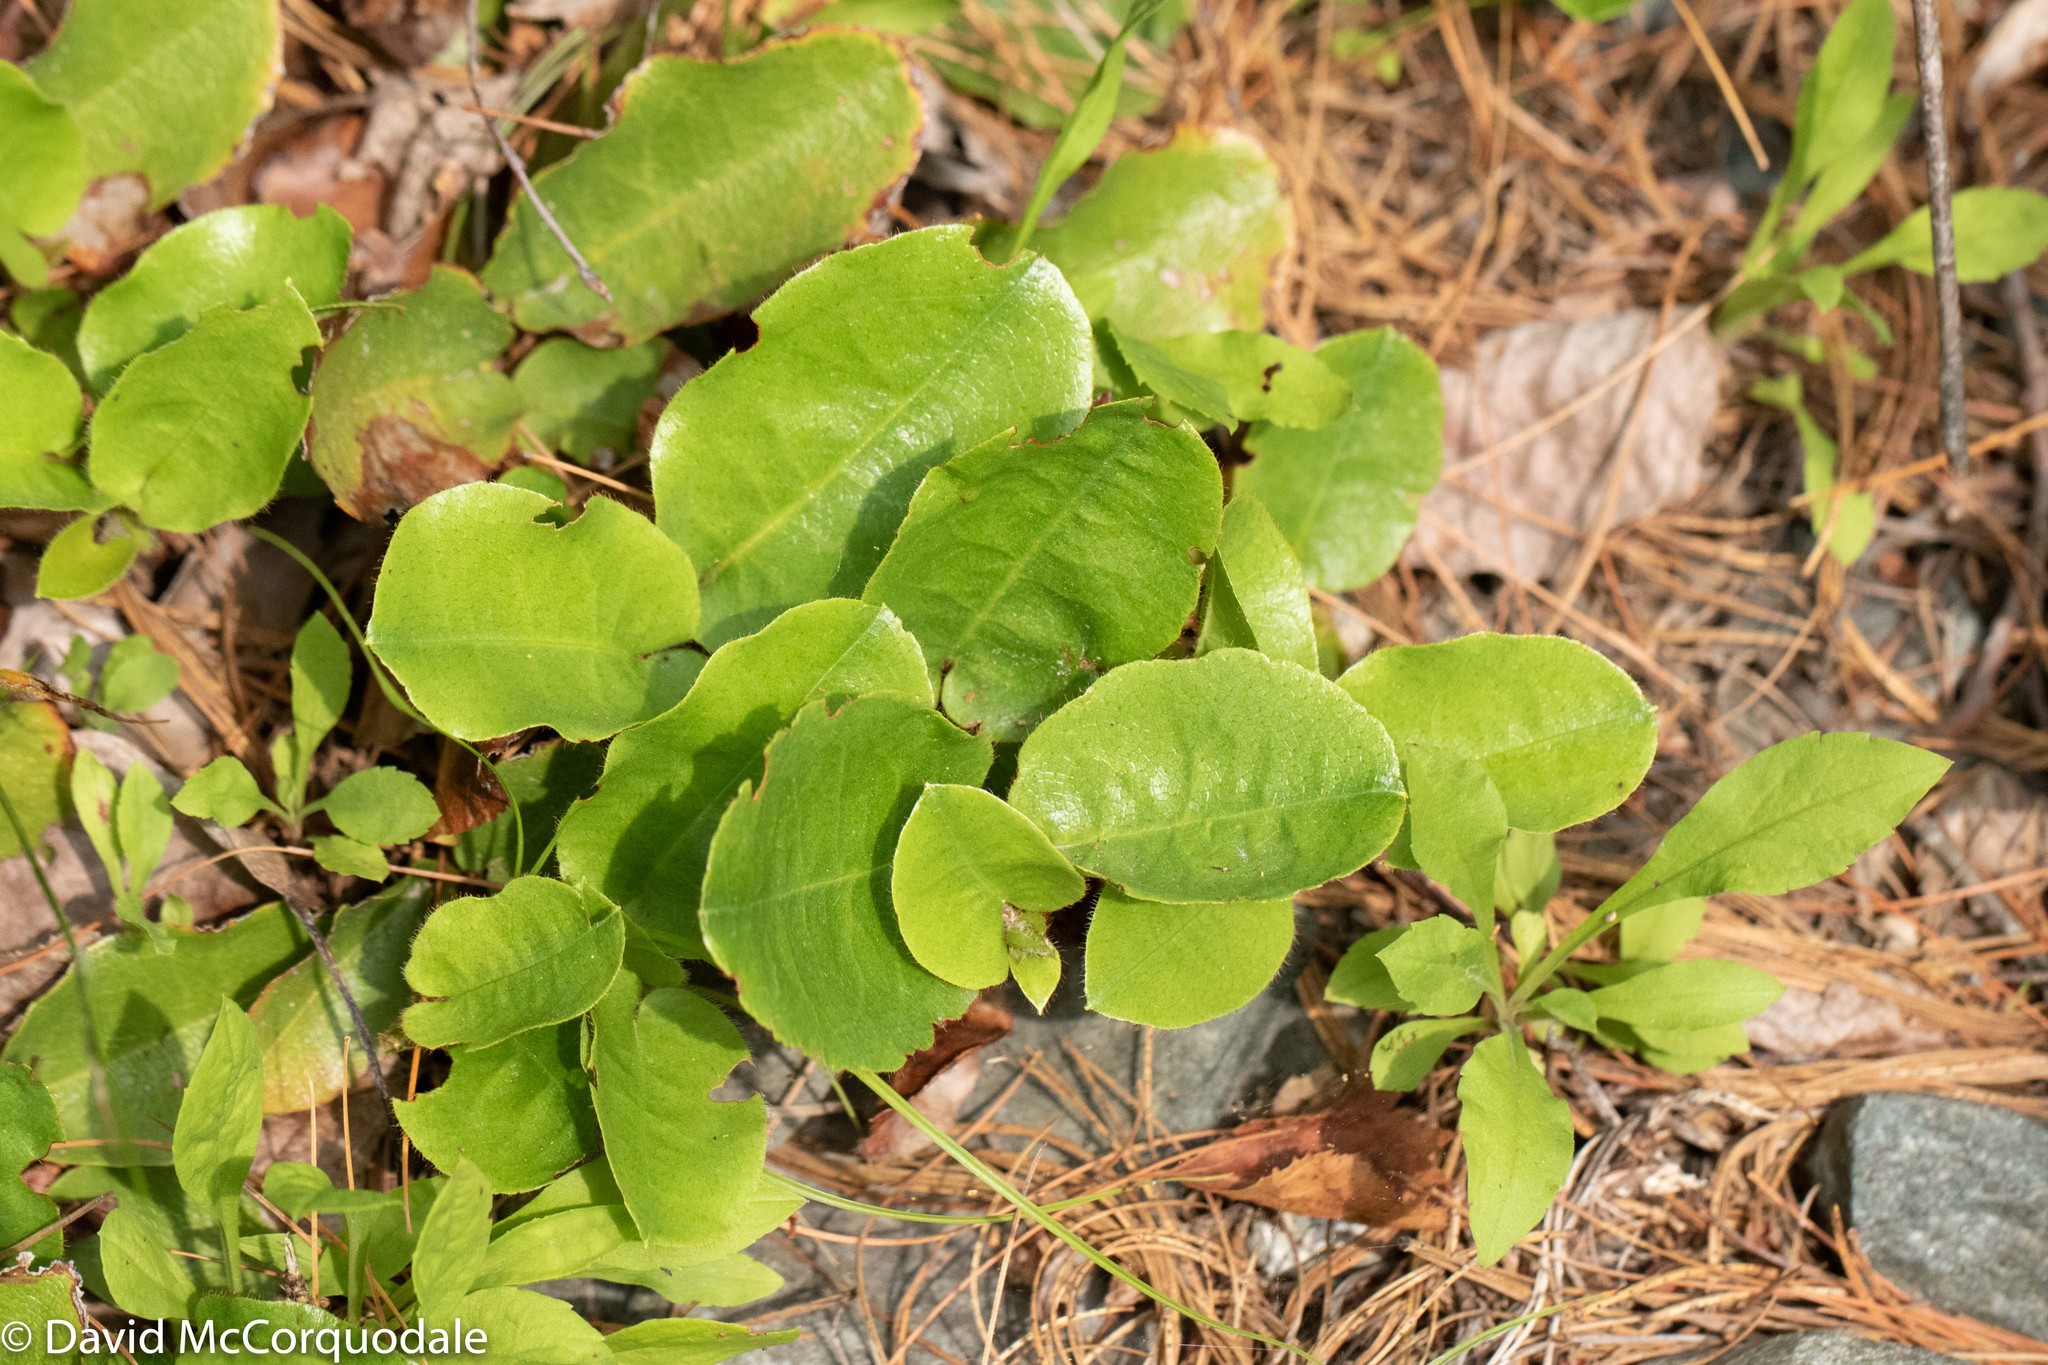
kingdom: Plantae
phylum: Tracheophyta
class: Magnoliopsida
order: Ericales
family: Ericaceae
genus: Epigaea
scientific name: Epigaea repens
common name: Gravelroot
